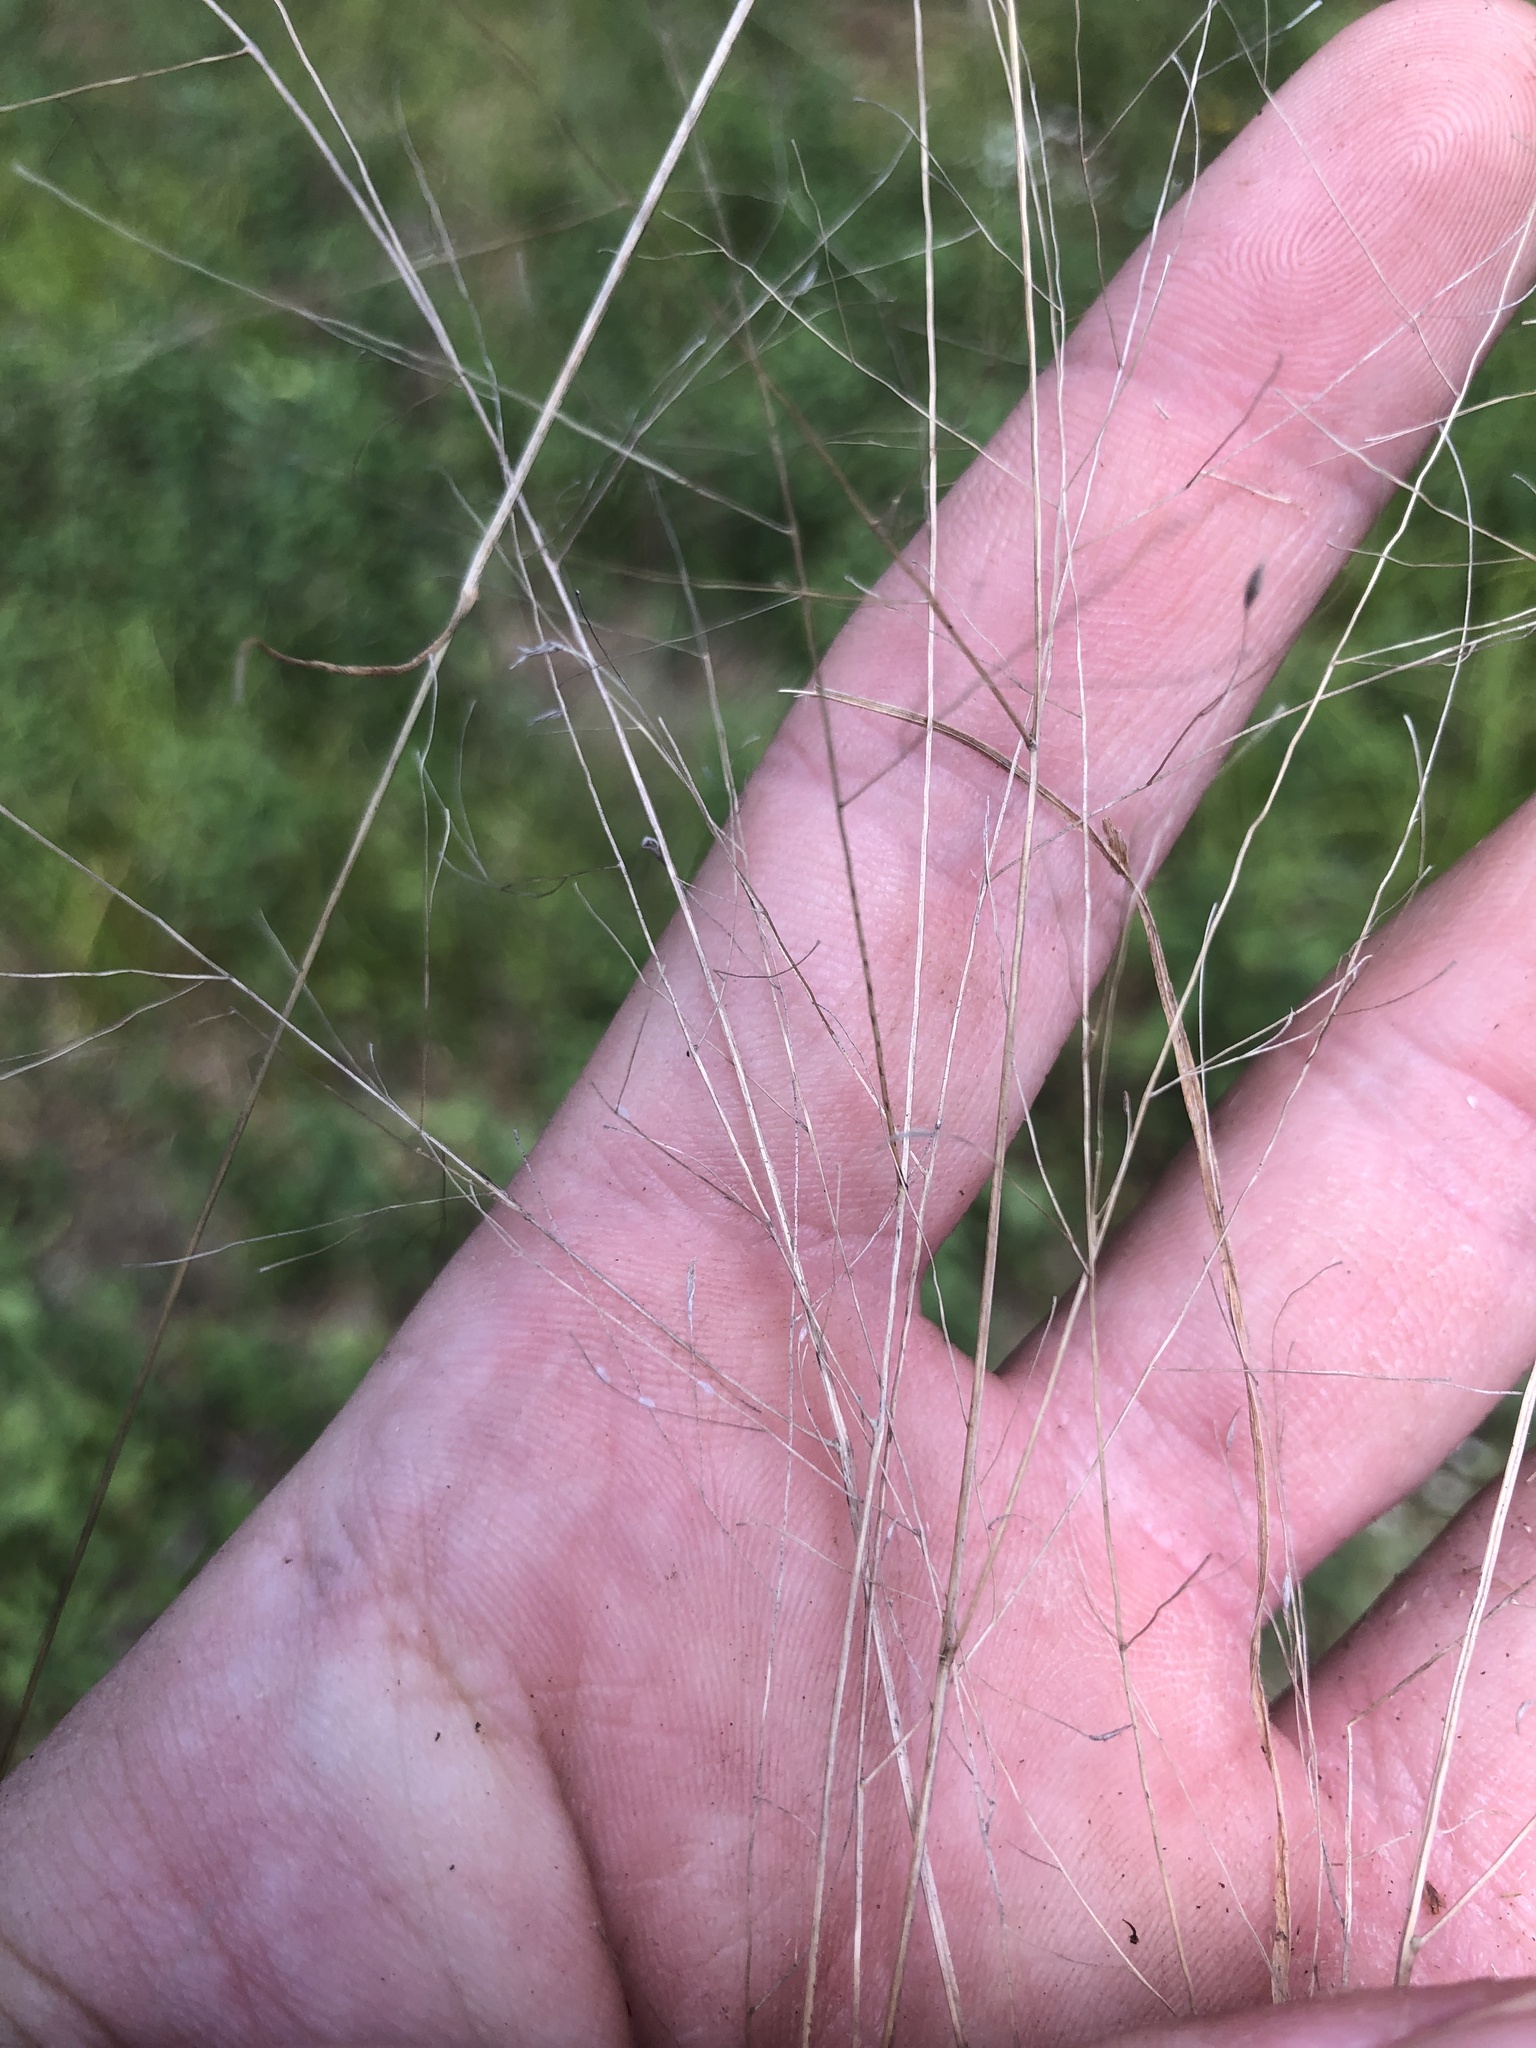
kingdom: Plantae
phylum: Tracheophyta
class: Liliopsida
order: Poales
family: Poaceae
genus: Panicum
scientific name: Panicum flexile
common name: Wiry panicgrass
